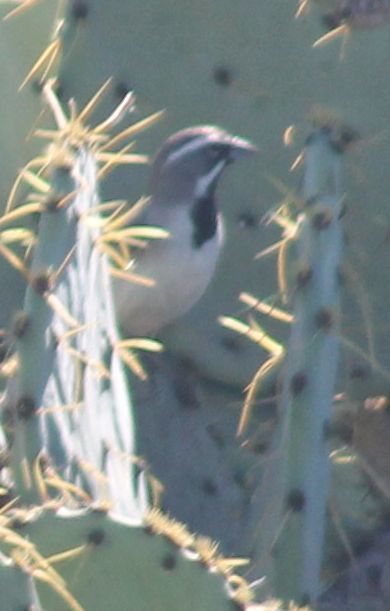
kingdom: Animalia
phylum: Chordata
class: Aves
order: Passeriformes
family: Passerellidae
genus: Amphispiza
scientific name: Amphispiza bilineata
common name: Black-throated sparrow
